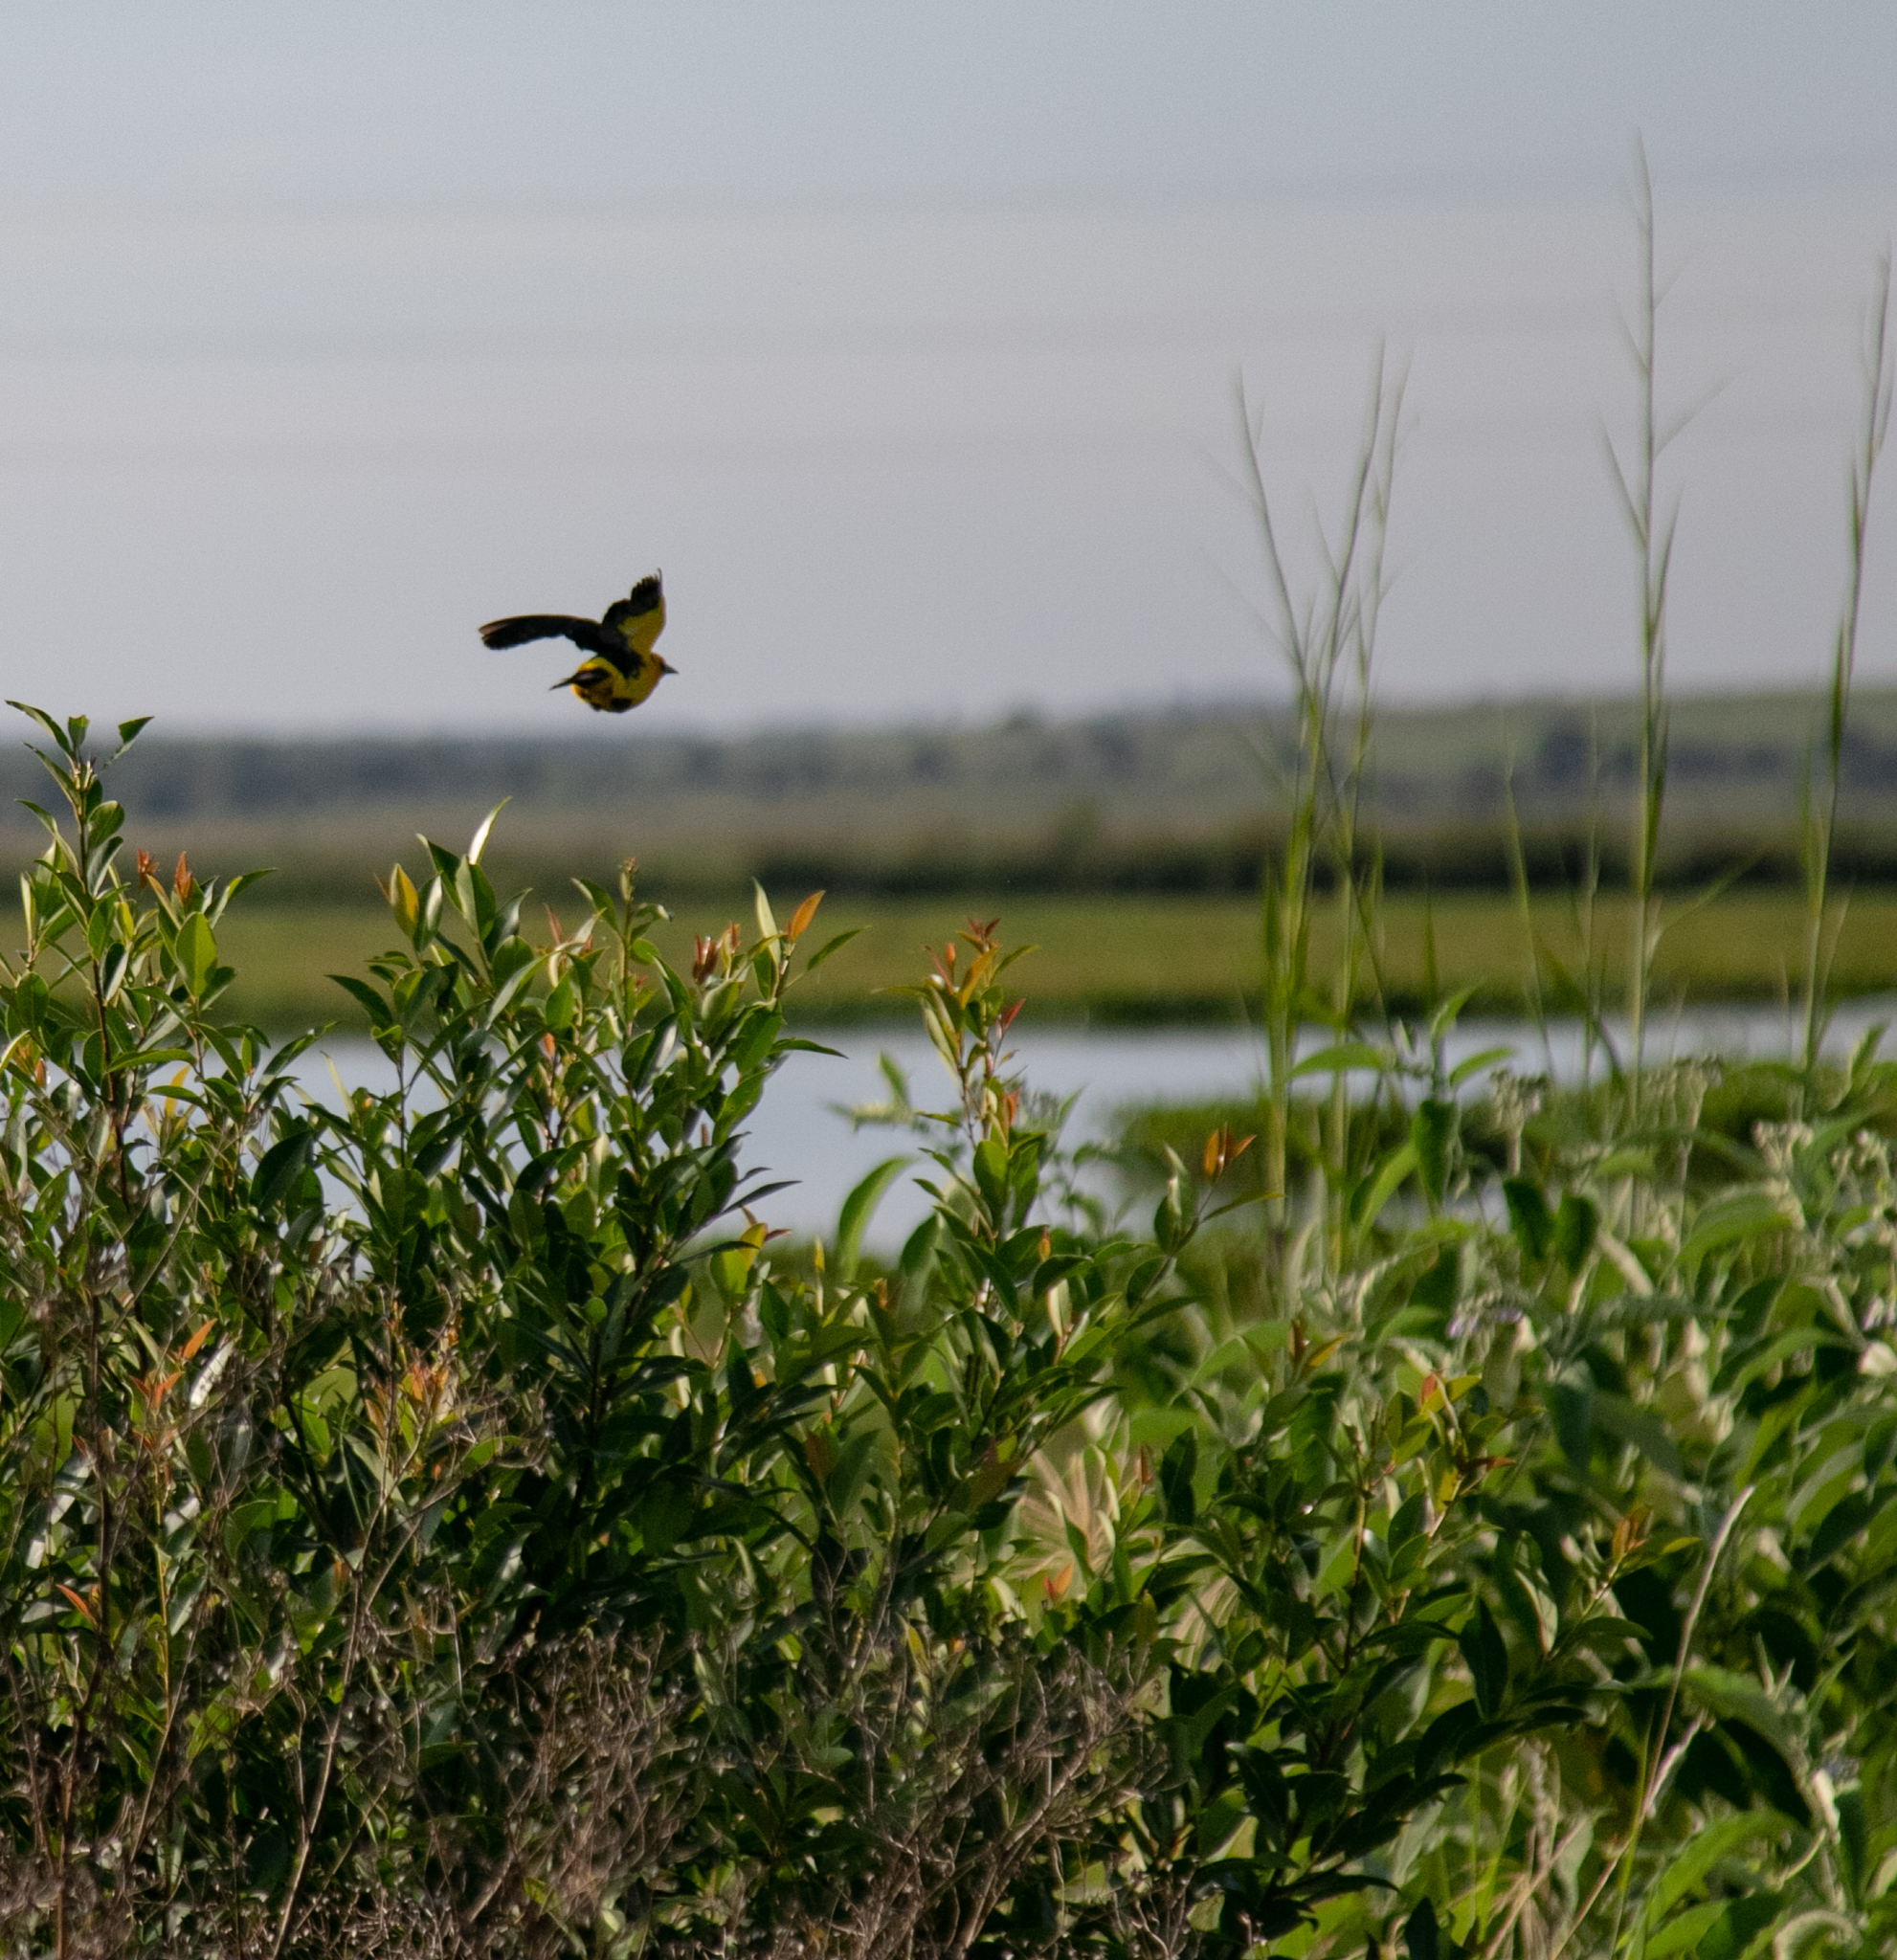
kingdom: Animalia
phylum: Chordata
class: Aves
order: Passeriformes
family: Icteridae
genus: Xanthopsar
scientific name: Xanthopsar flavus
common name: Saffron-cowled blackbird
